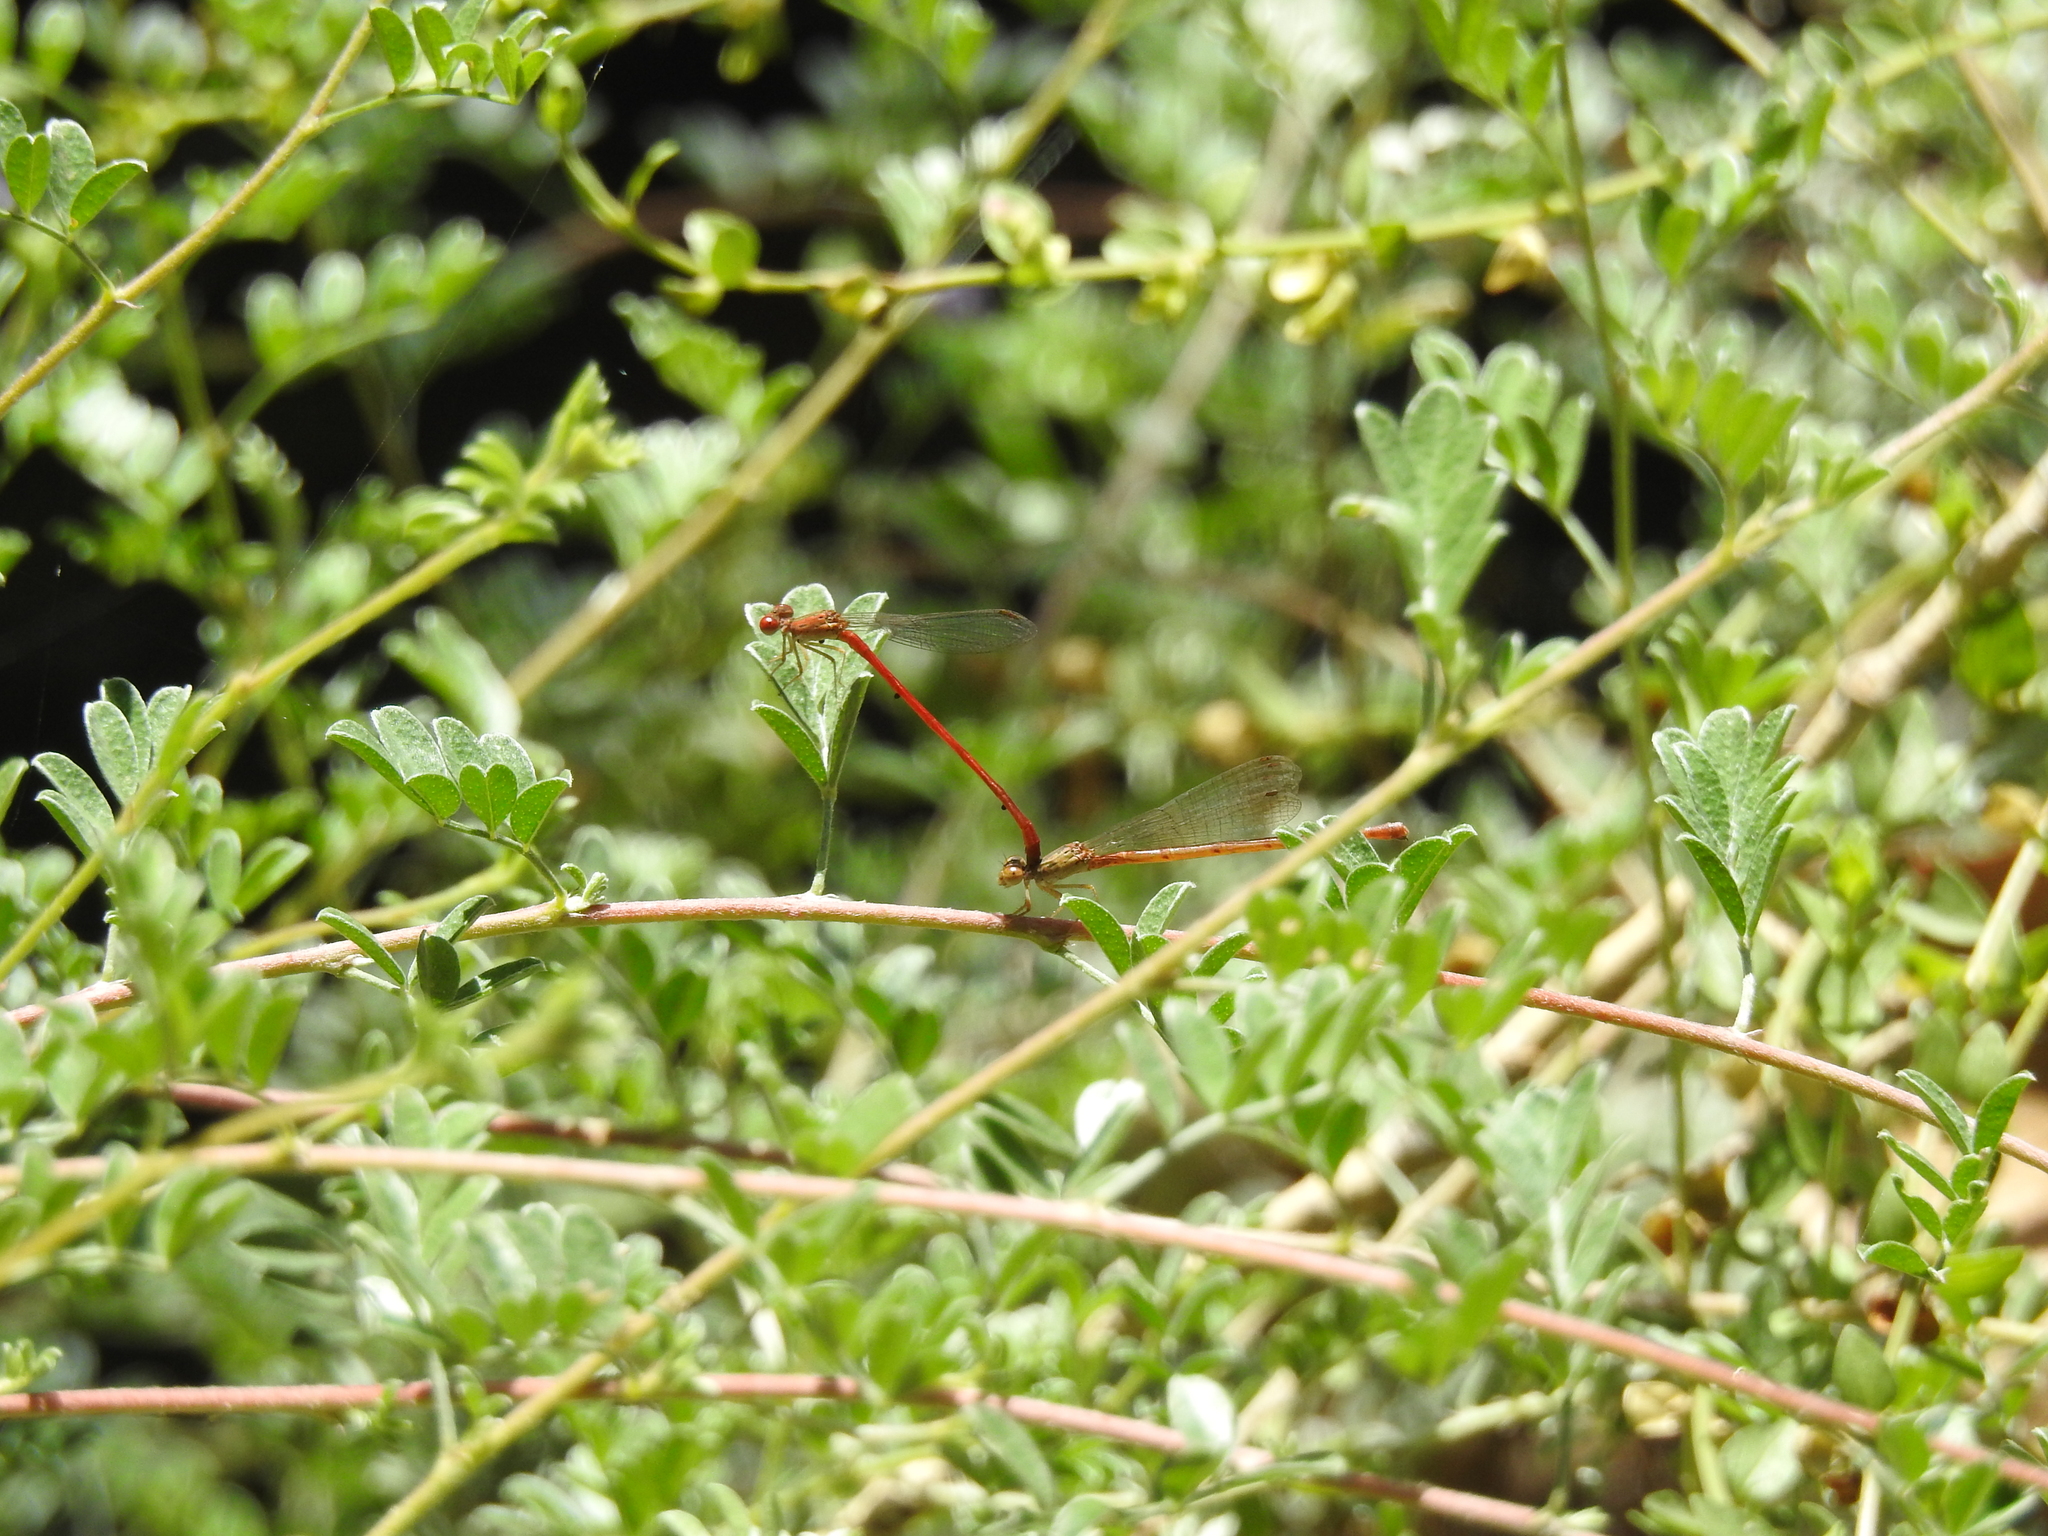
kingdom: Animalia
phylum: Arthropoda
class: Insecta
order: Odonata
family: Coenagrionidae
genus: Telebasis
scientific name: Telebasis salva
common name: Desert firetail
